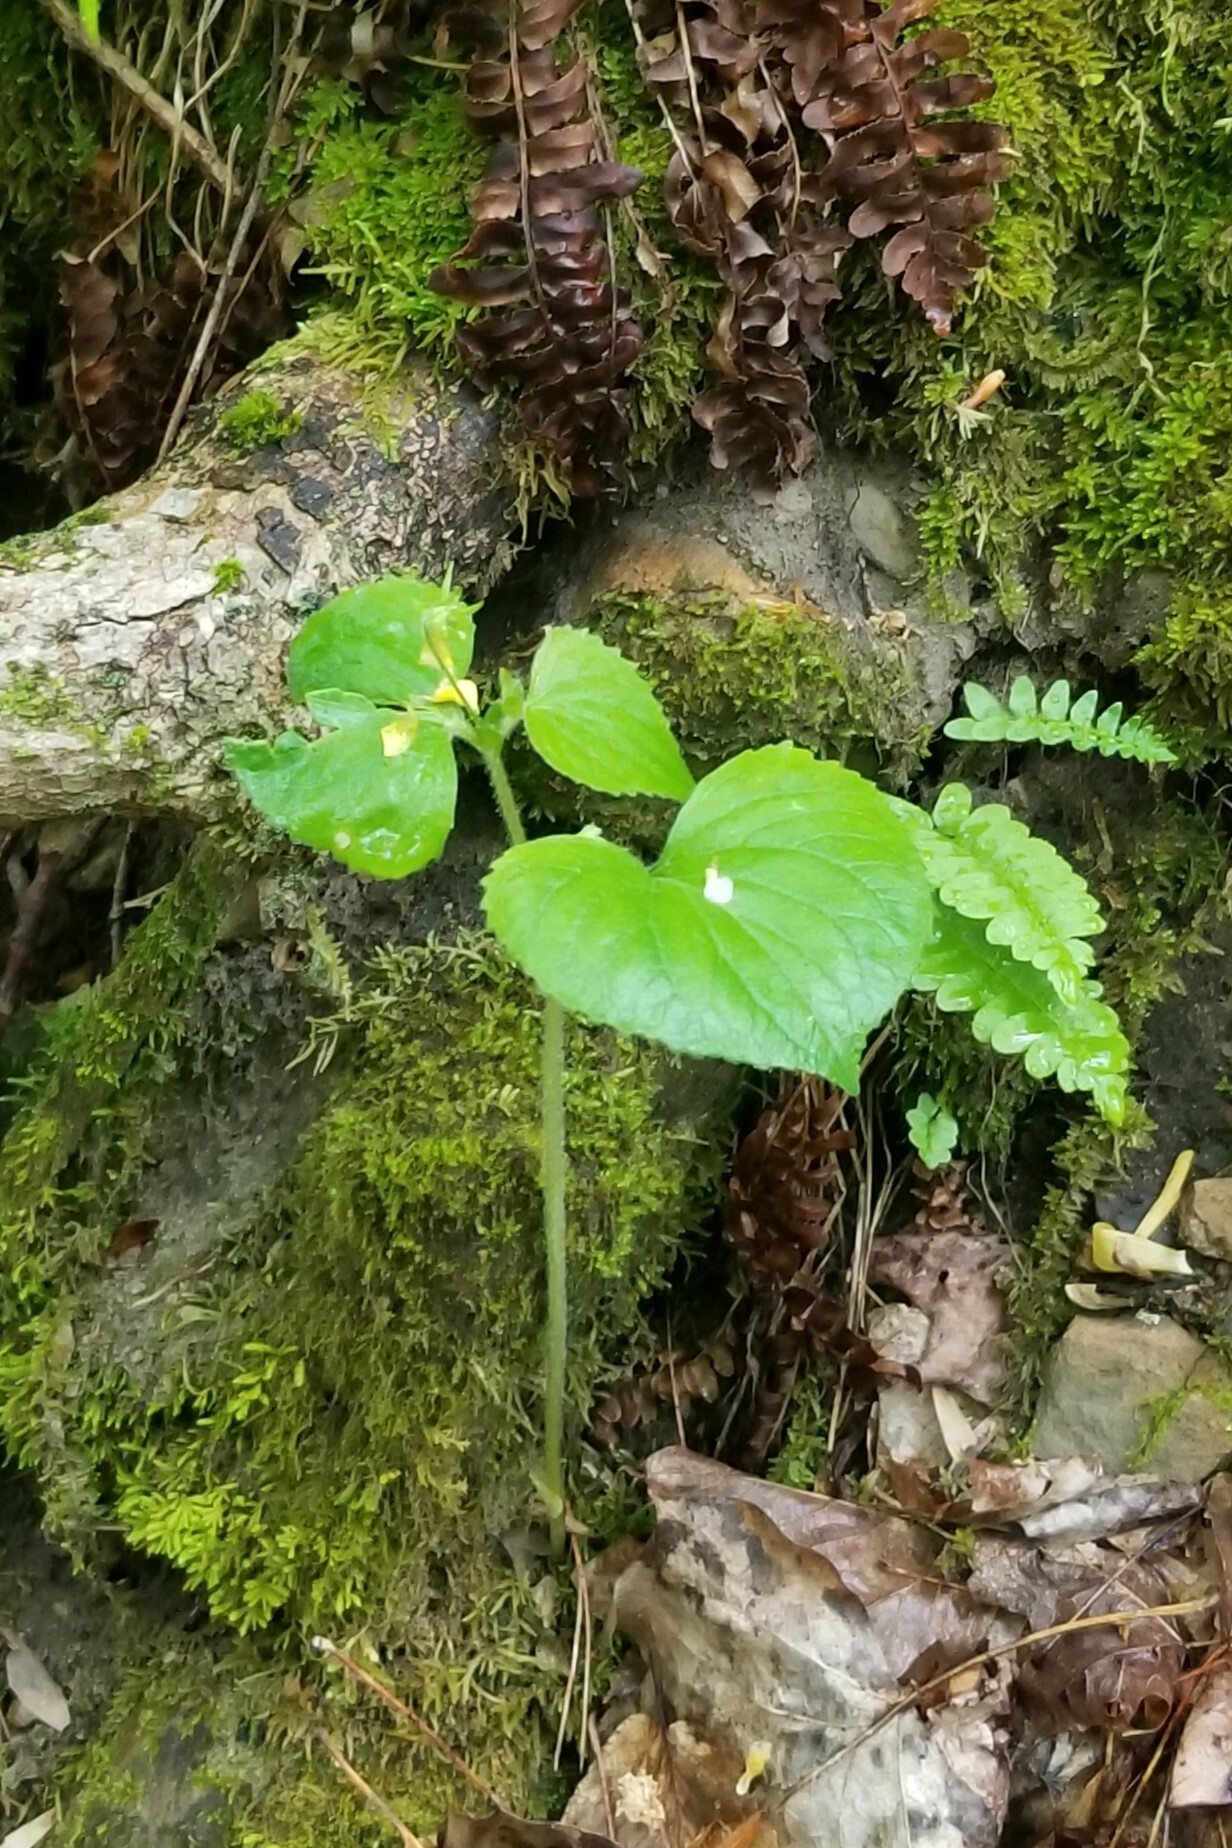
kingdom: Plantae
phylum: Tracheophyta
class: Magnoliopsida
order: Malpighiales
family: Violaceae
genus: Viola
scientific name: Viola pubescens
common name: Yellow forest violet
